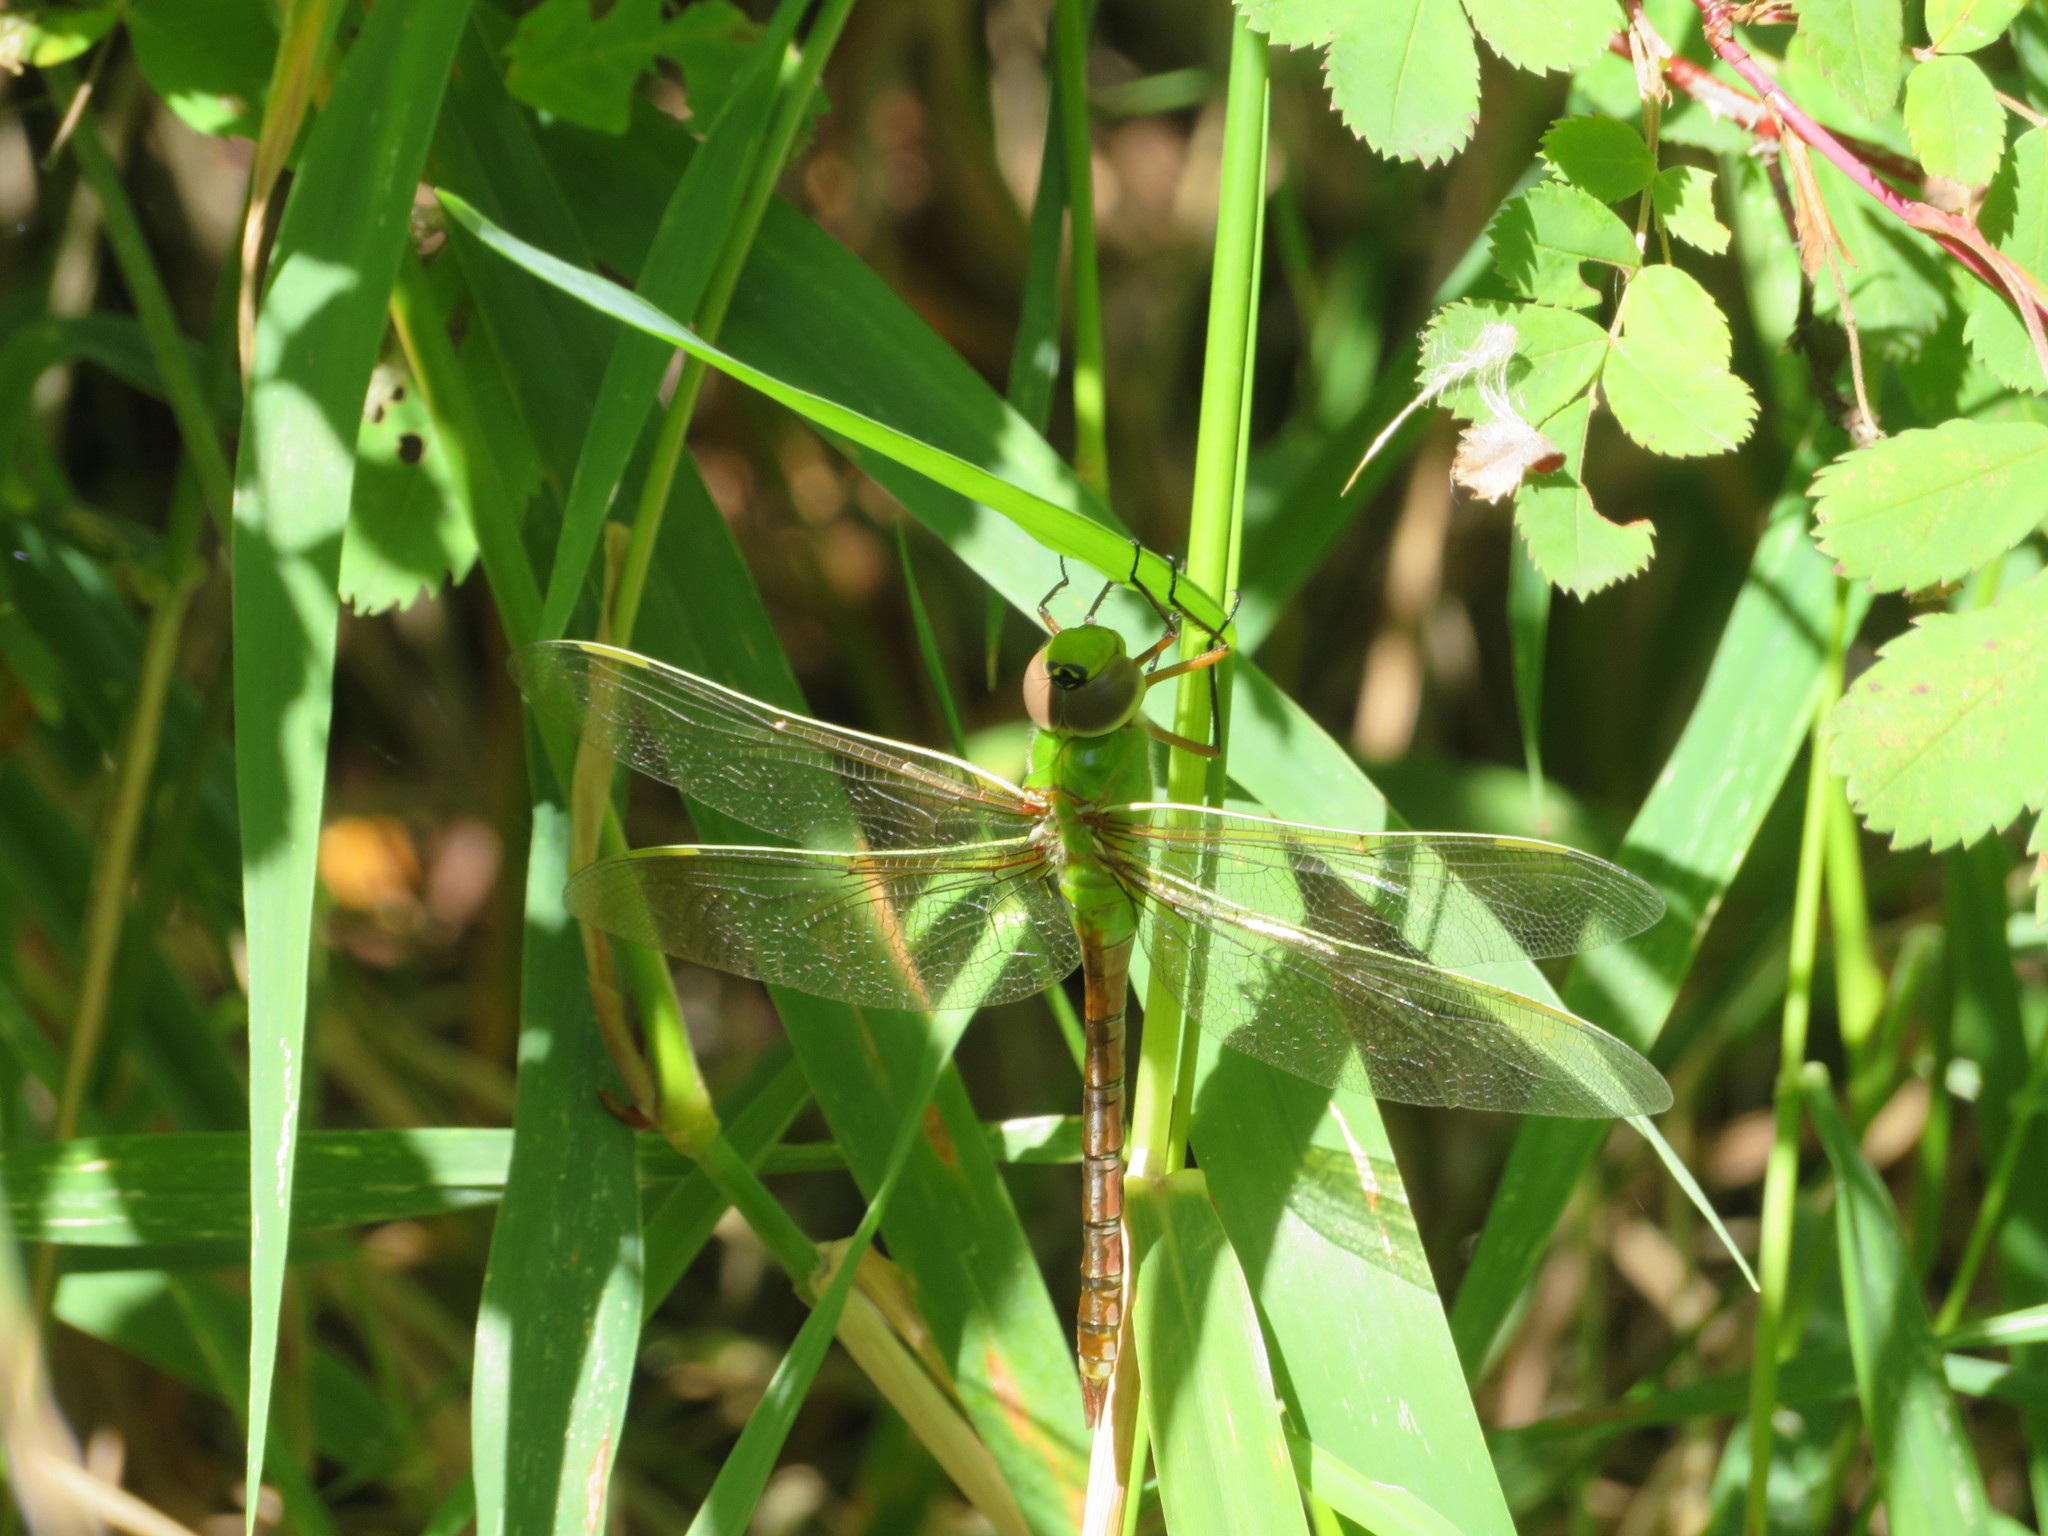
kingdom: Animalia
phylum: Arthropoda
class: Insecta
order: Odonata
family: Aeshnidae
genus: Anax
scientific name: Anax junius
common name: Common green darner
